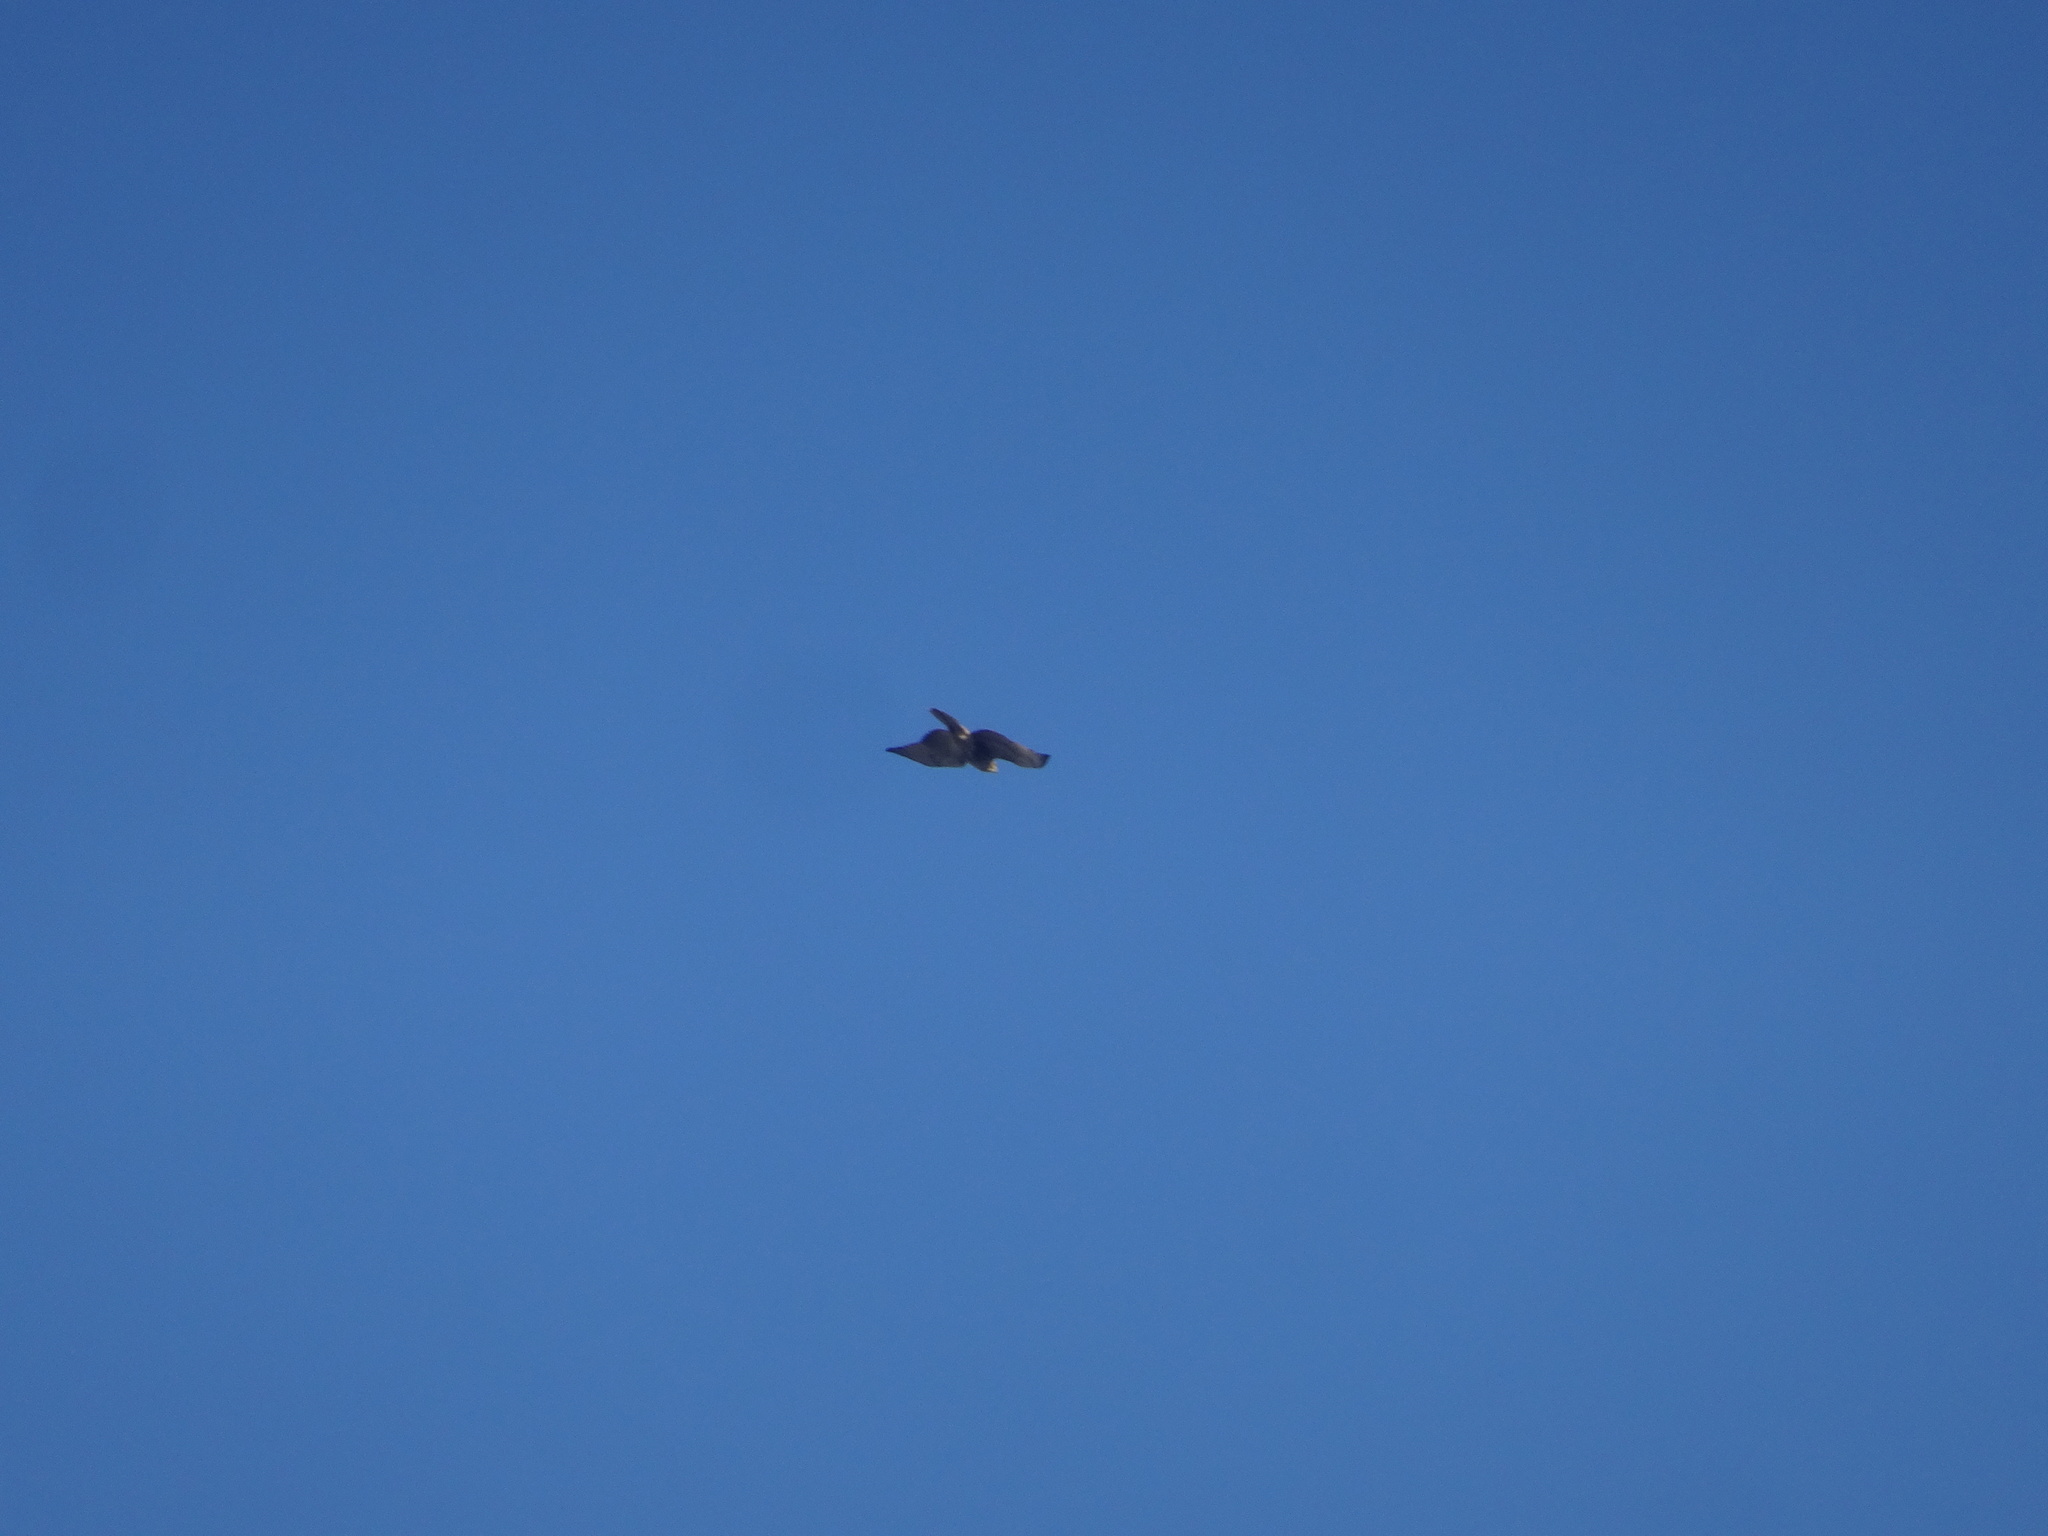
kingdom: Animalia
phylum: Chordata
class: Aves
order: Accipitriformes
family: Accipitridae
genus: Buteo
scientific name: Buteo jamaicensis
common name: Red-tailed hawk
